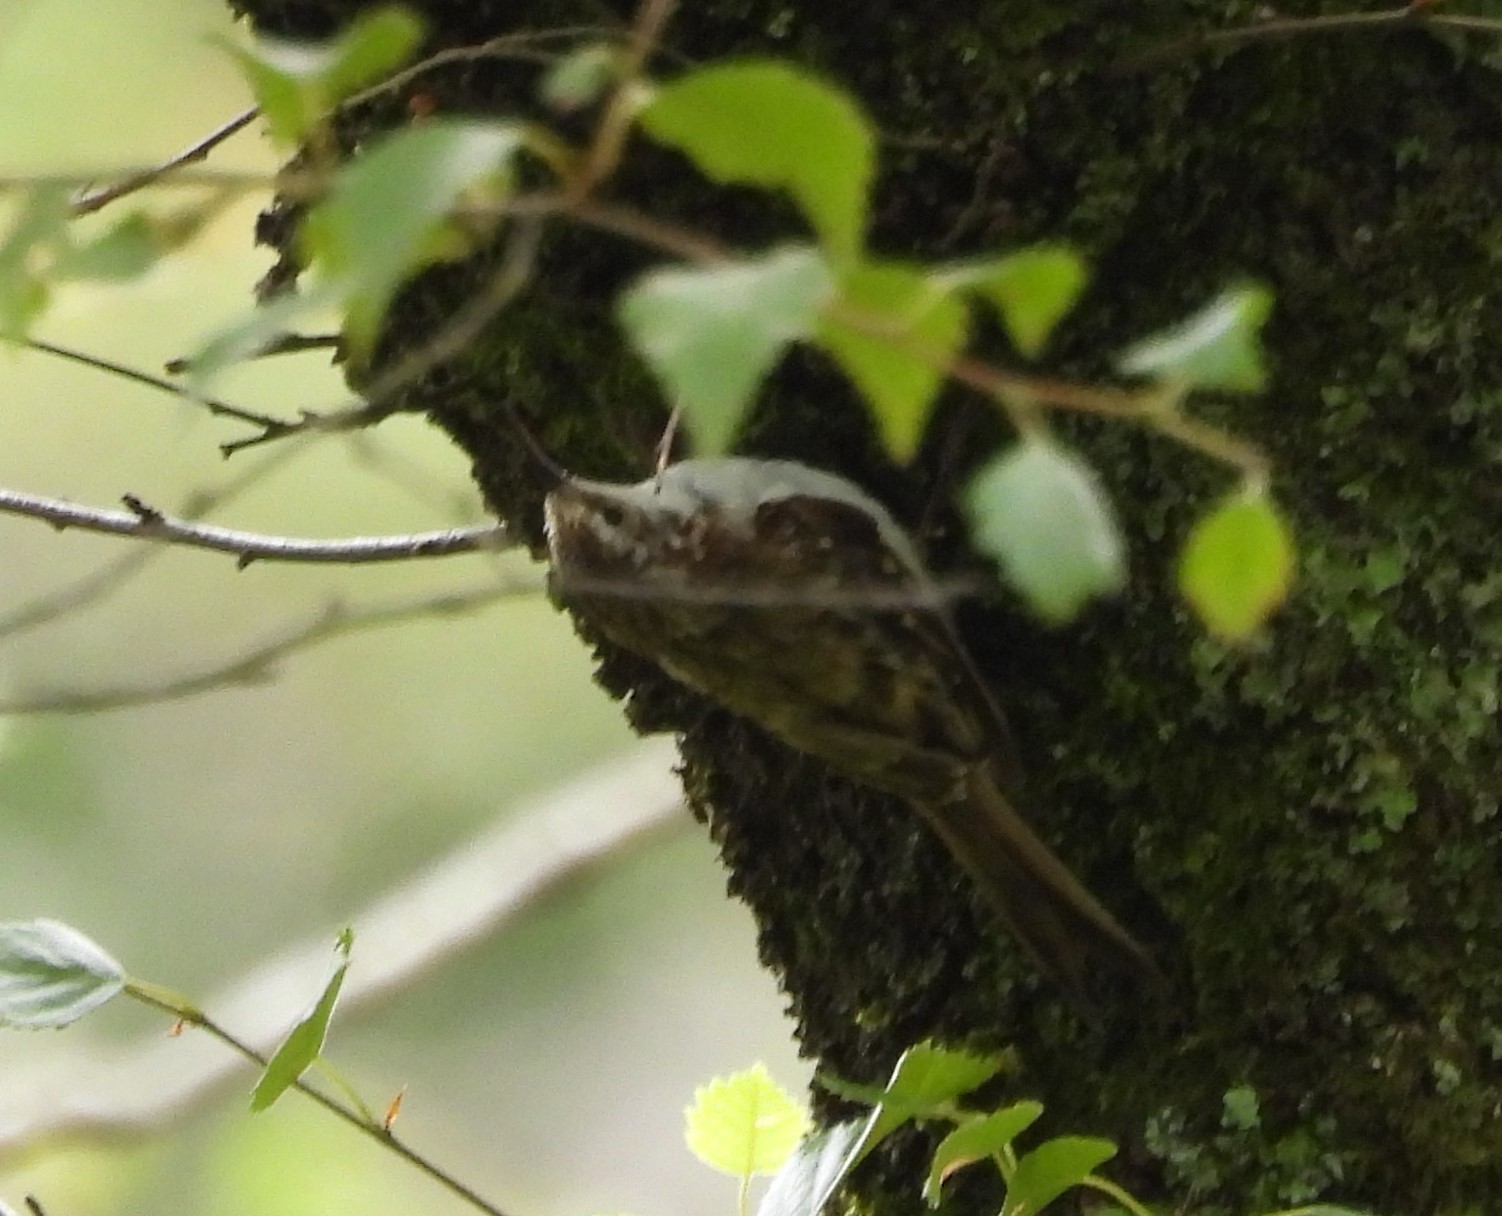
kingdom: Animalia
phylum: Chordata
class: Aves
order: Passeriformes
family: Certhiidae
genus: Certhia
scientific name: Certhia familiaris
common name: Eurasian treecreeper
